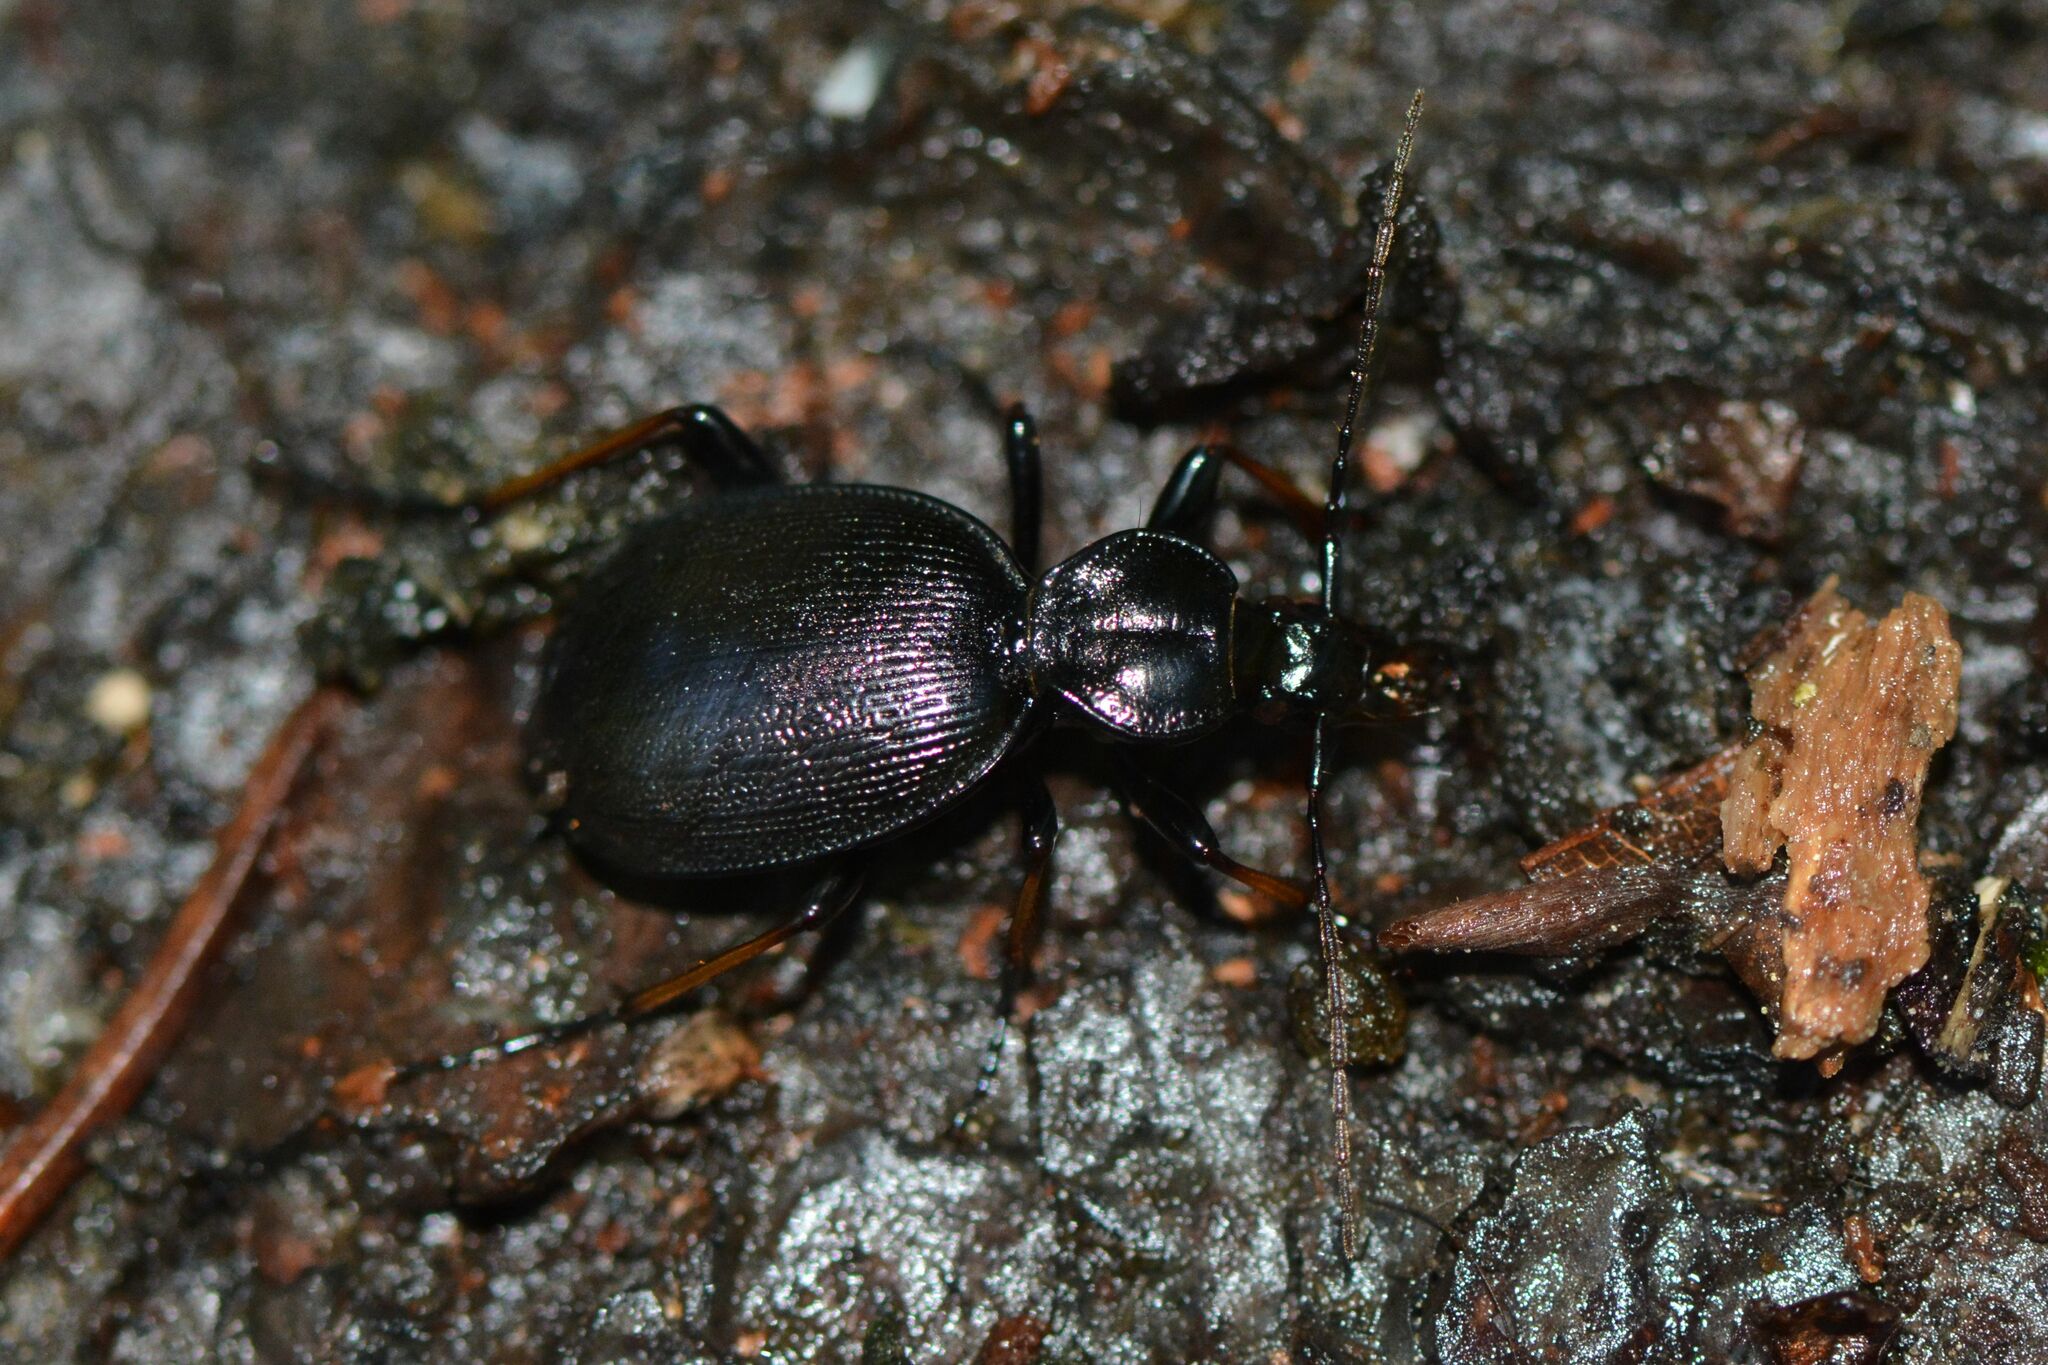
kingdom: Animalia
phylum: Arthropoda
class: Insecta
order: Coleoptera
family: Carabidae
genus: Cychrus
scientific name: Cychrus attenuatus
